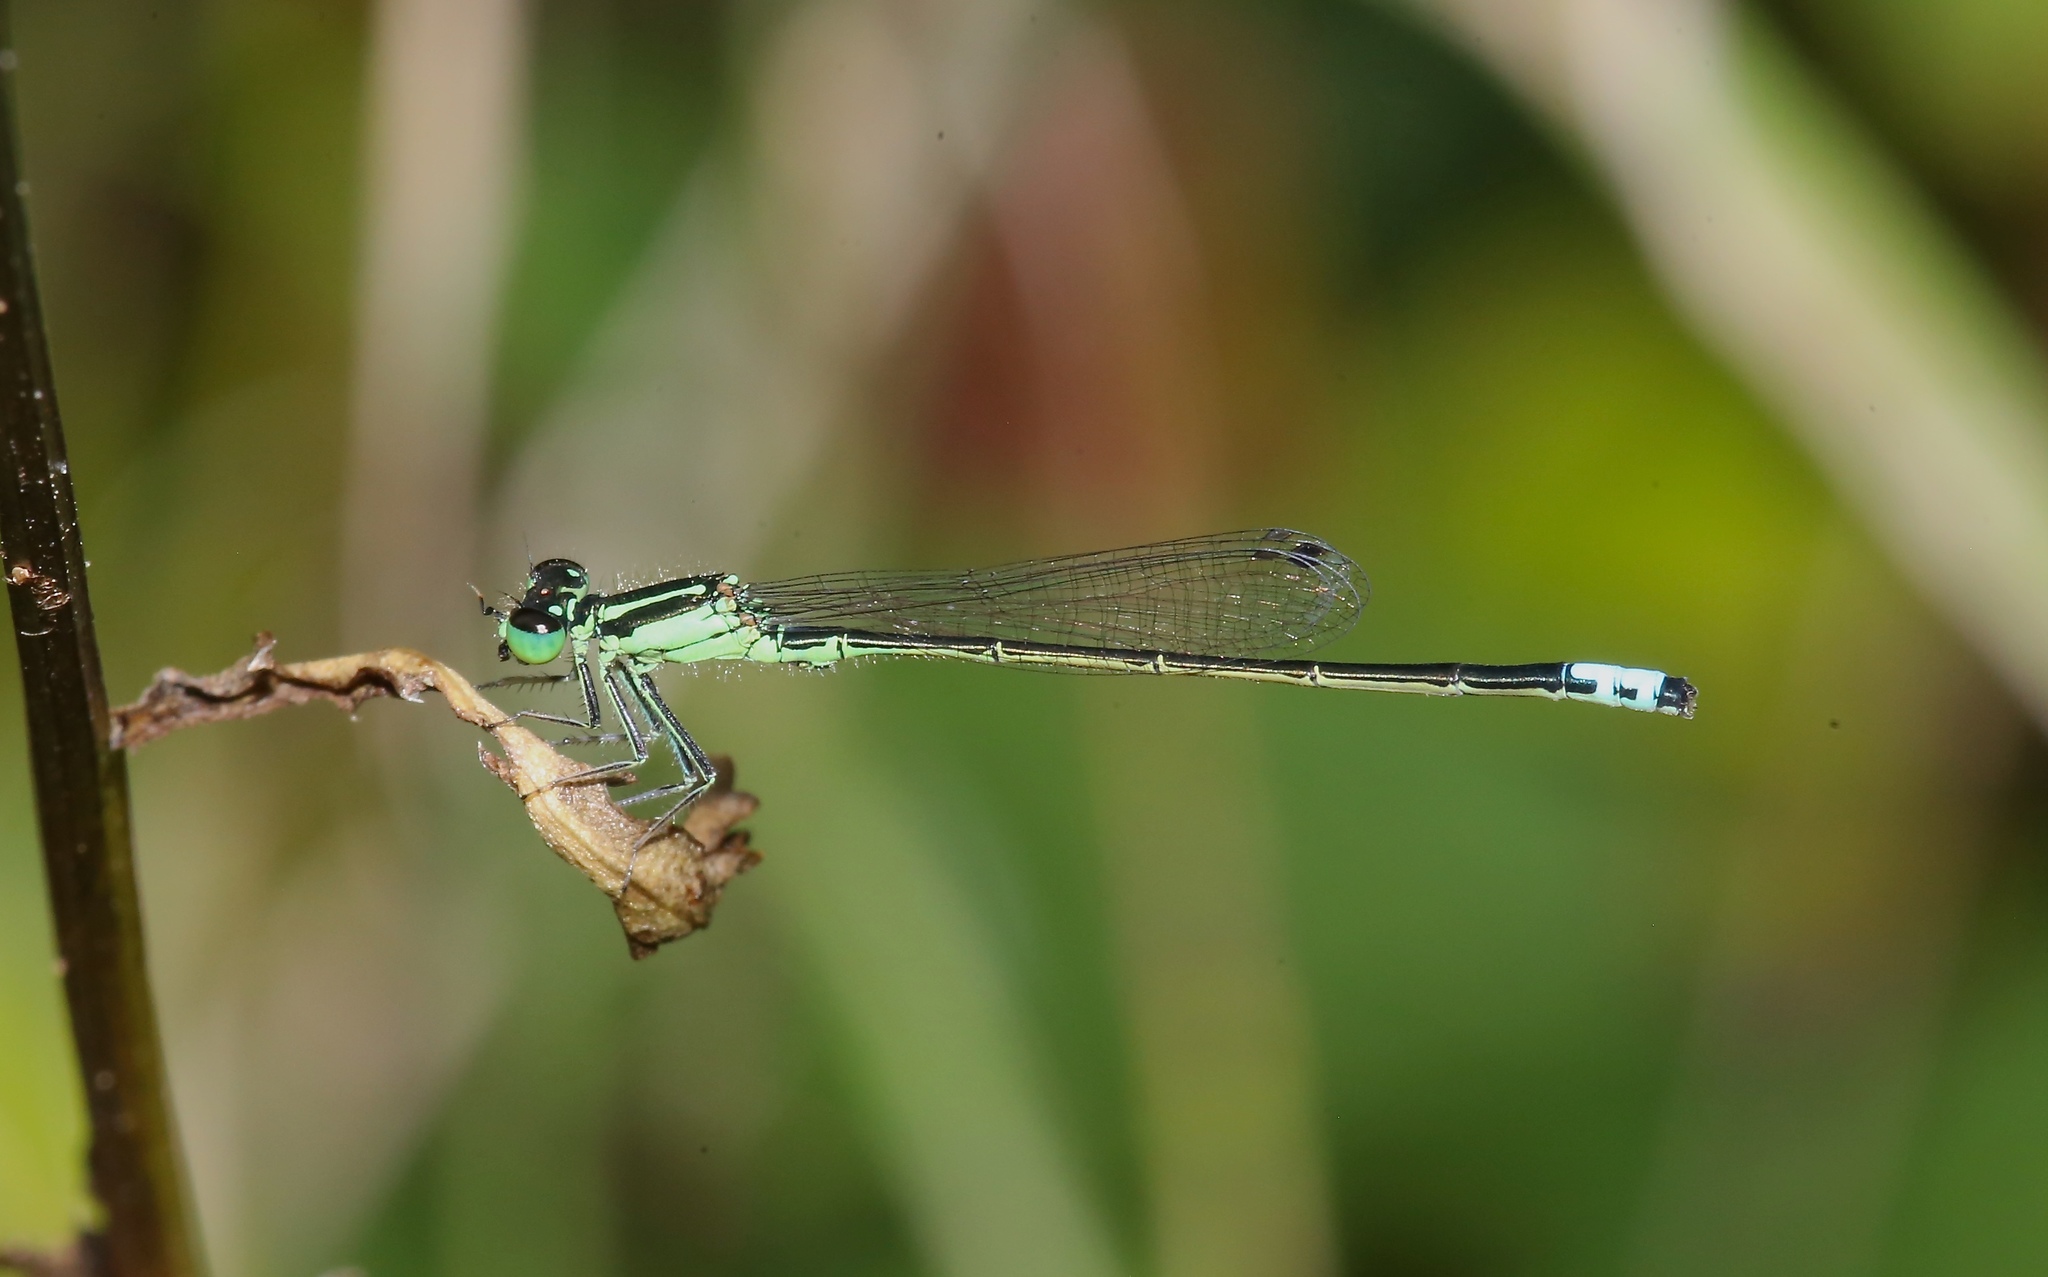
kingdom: Animalia
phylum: Arthropoda
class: Insecta
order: Odonata
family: Coenagrionidae
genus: Ischnura
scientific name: Ischnura verticalis
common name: Eastern forktail
